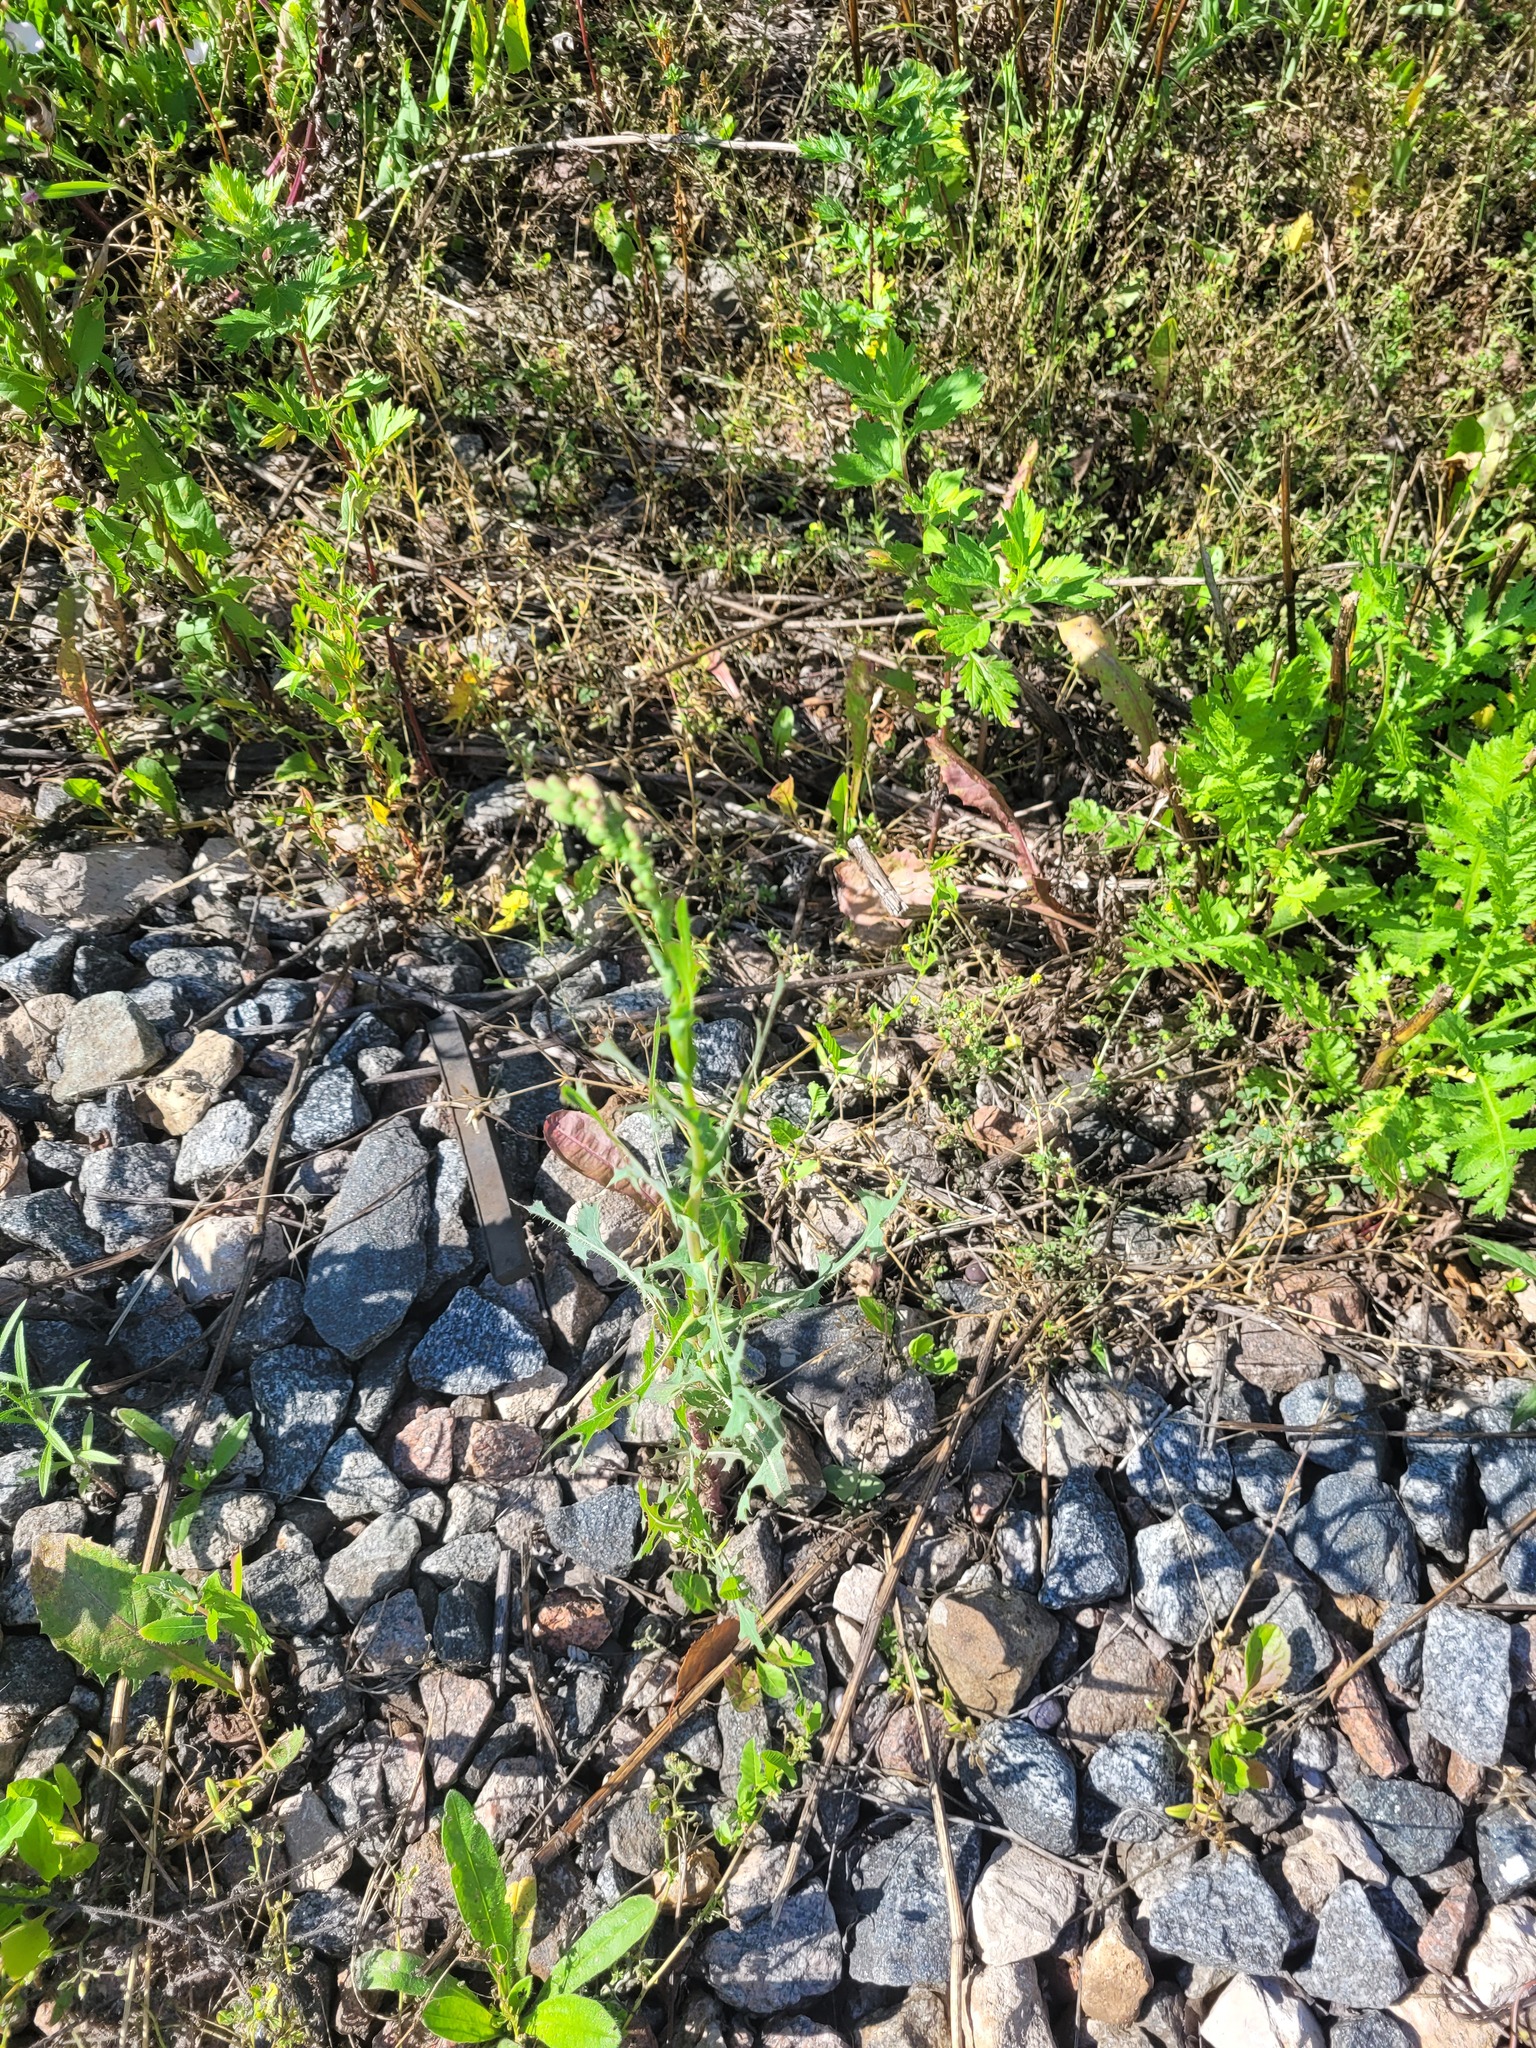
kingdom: Plantae
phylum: Tracheophyta
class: Magnoliopsida
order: Asterales
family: Asteraceae
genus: Lactuca
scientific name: Lactuca serriola
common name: Prickly lettuce
